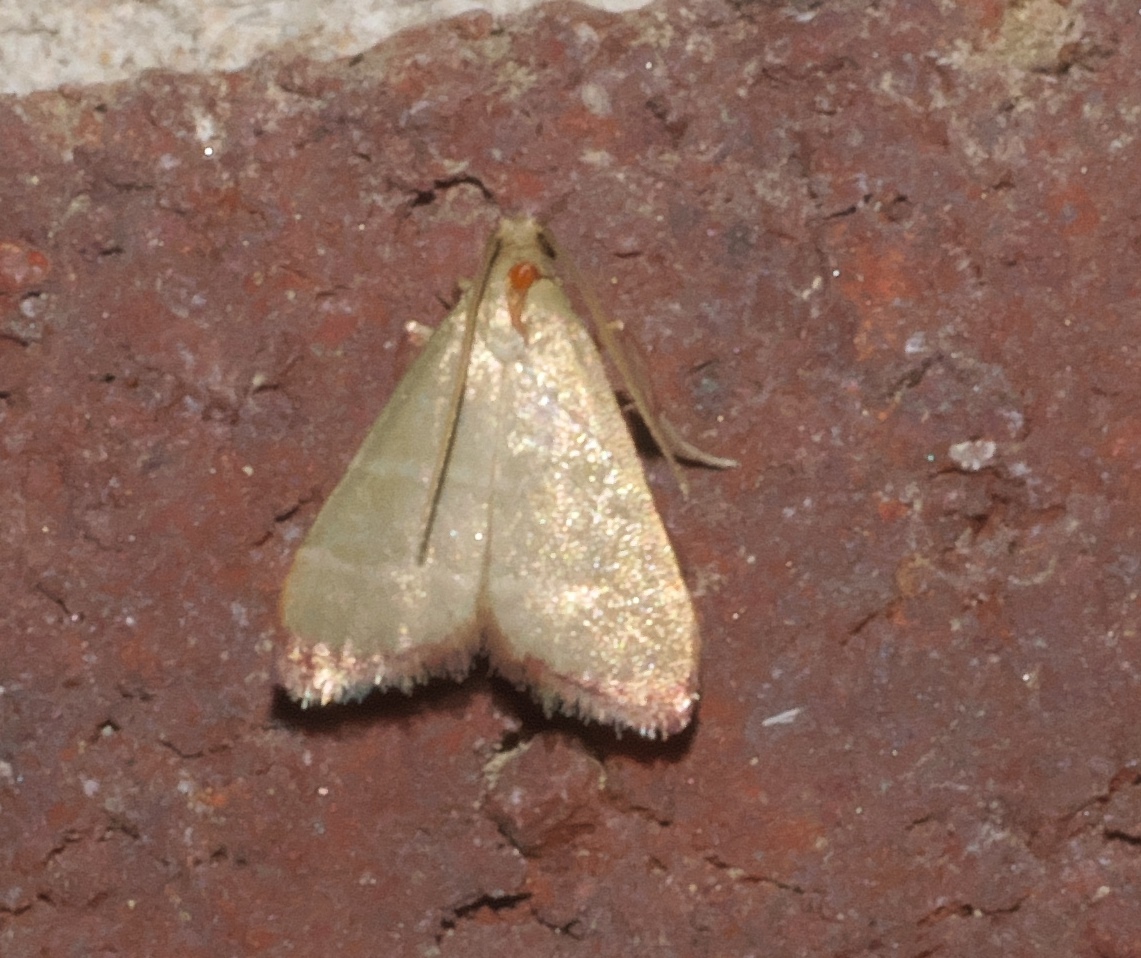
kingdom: Animalia
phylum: Arthropoda
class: Insecta
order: Lepidoptera
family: Pyralidae
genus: Arta
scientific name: Arta olivalis
